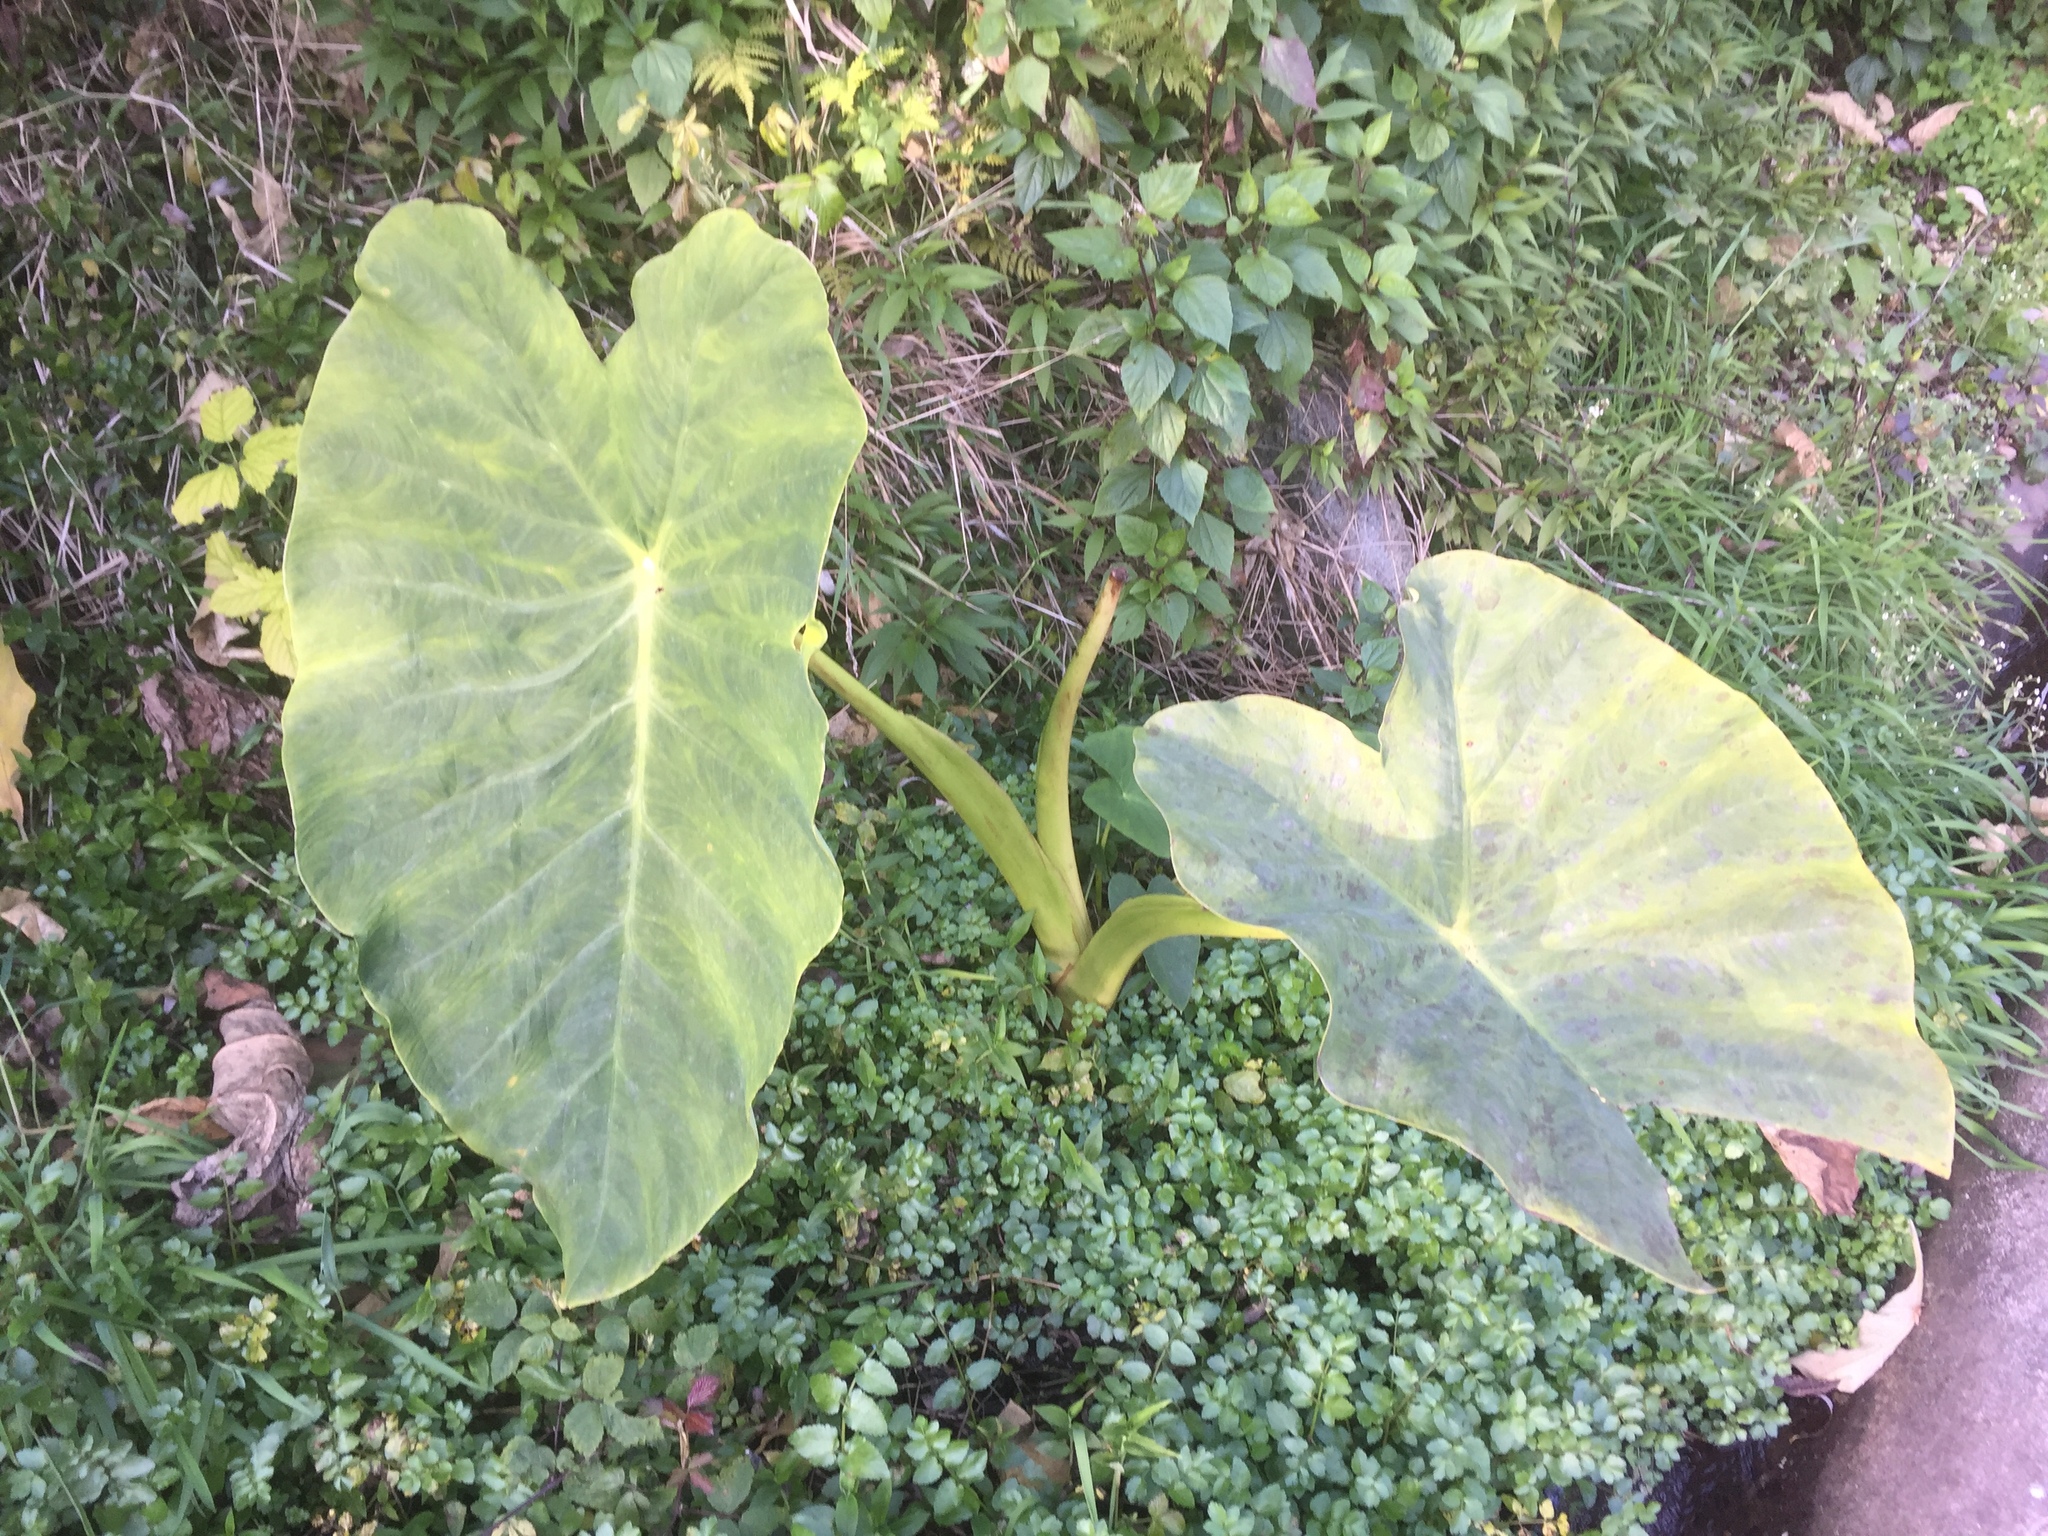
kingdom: Plantae
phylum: Tracheophyta
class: Liliopsida
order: Alismatales
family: Araceae
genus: Colocasia
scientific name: Colocasia esculenta
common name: Taro
